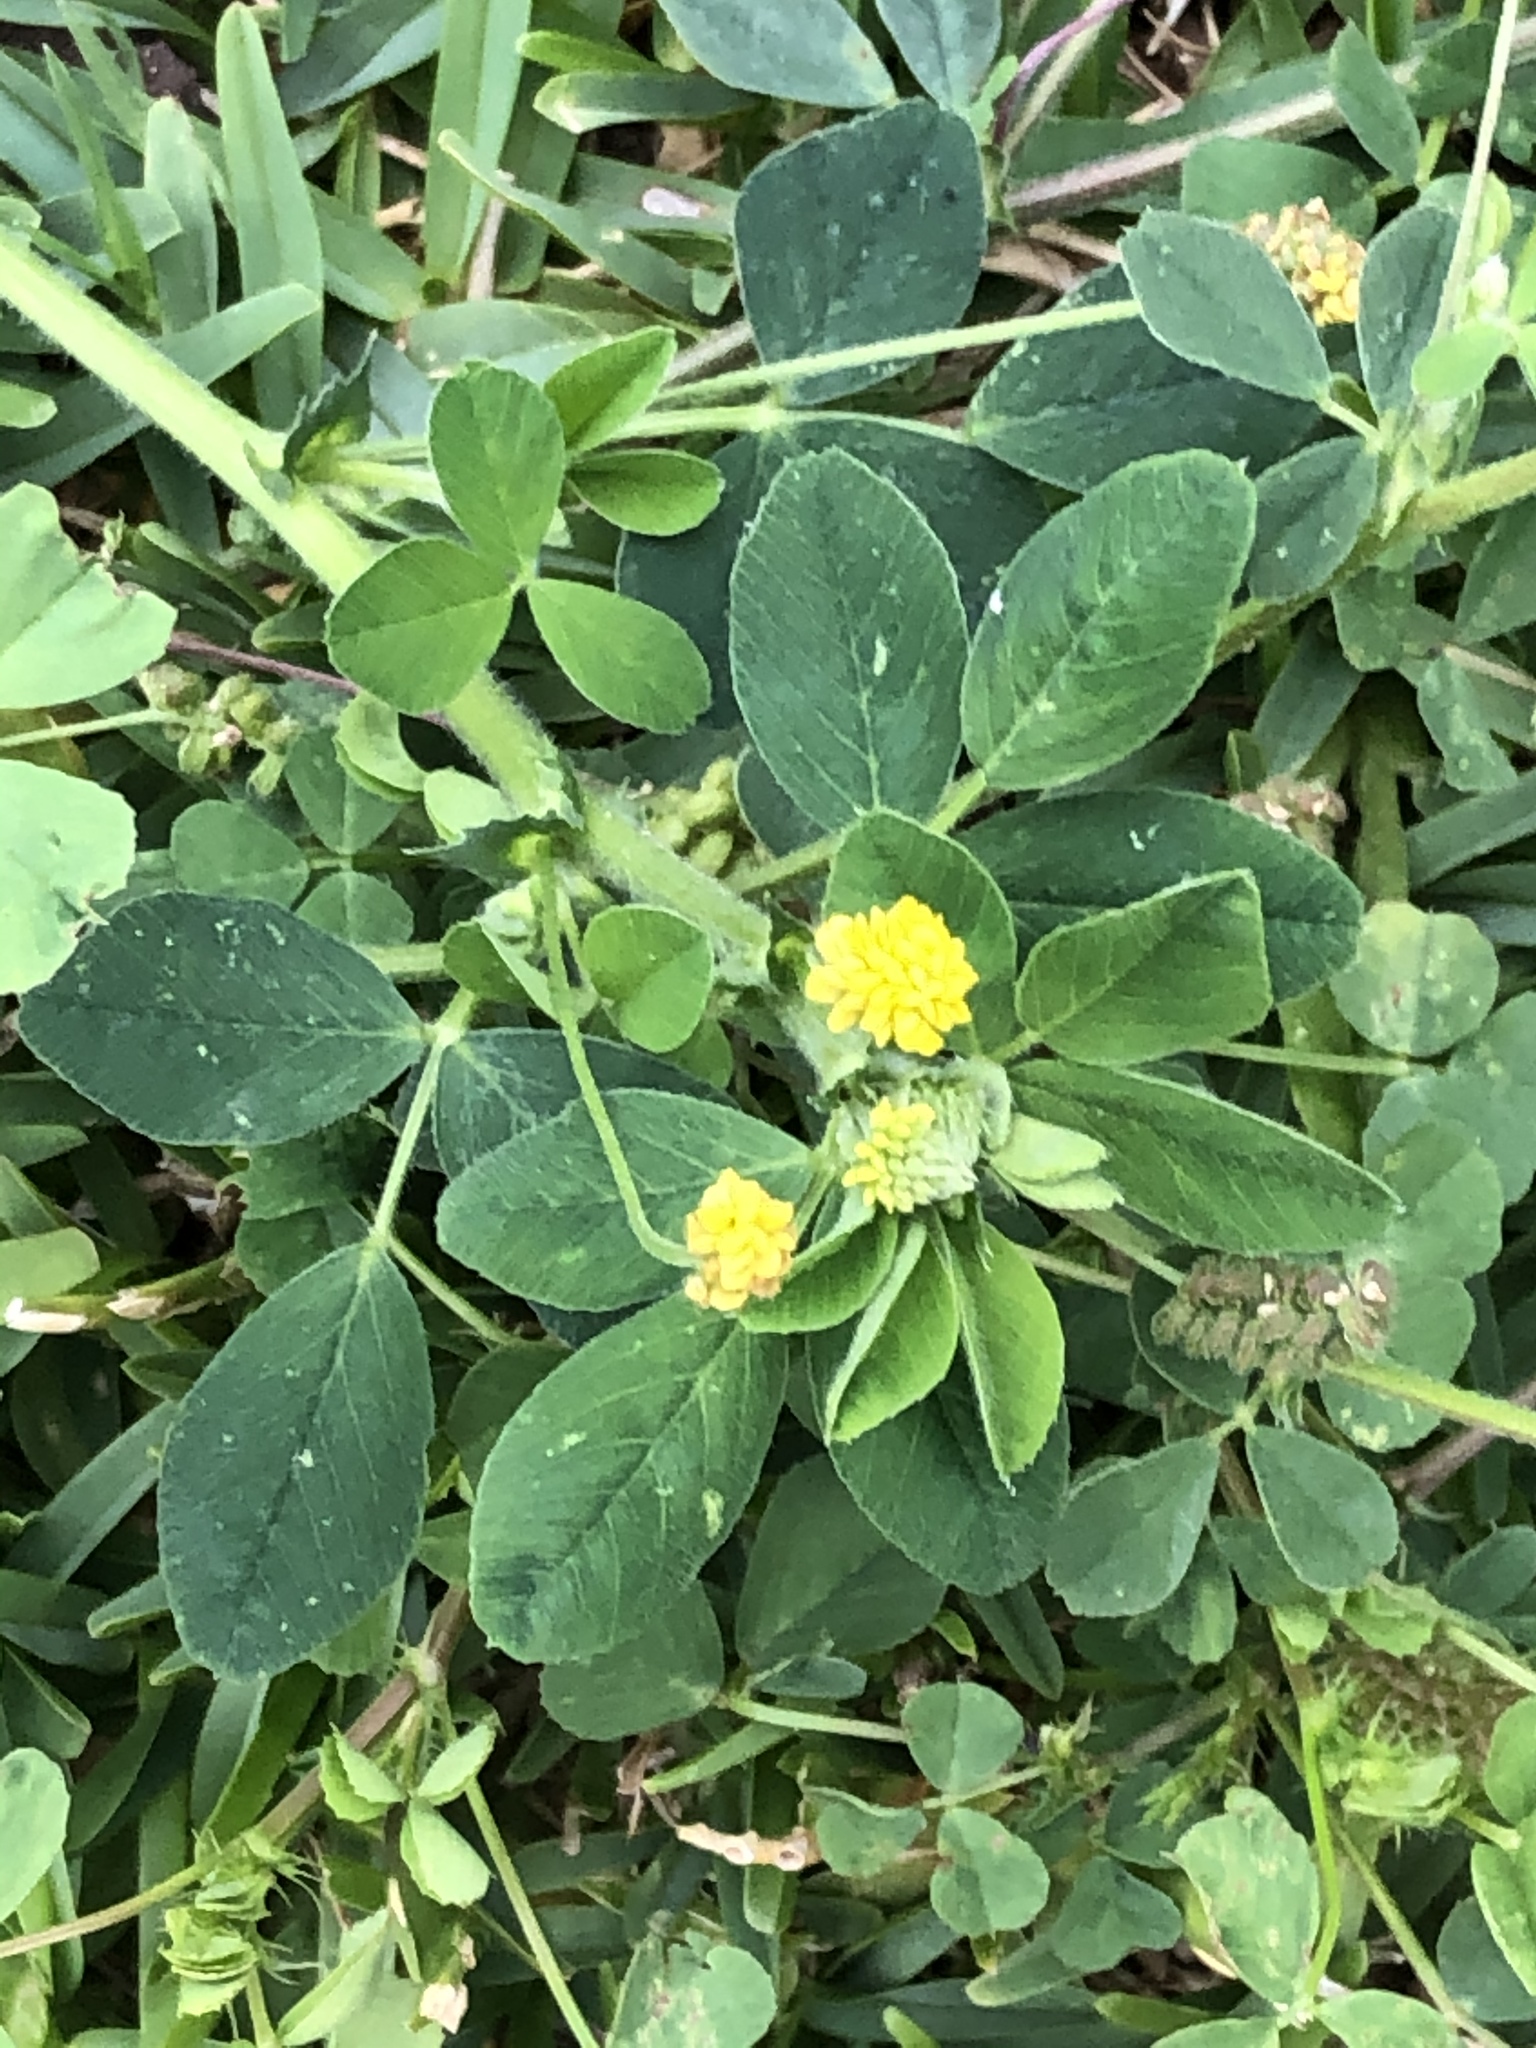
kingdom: Plantae
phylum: Tracheophyta
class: Magnoliopsida
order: Fabales
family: Fabaceae
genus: Medicago
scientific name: Medicago lupulina
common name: Black medick
